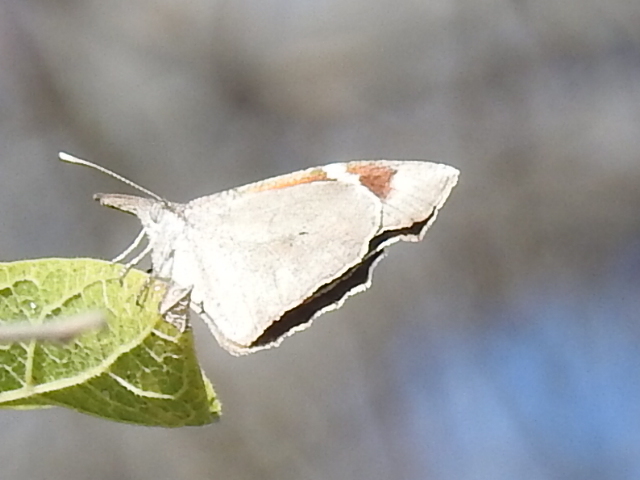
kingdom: Animalia
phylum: Arthropoda
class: Insecta
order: Lepidoptera
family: Nymphalidae
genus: Libytheana
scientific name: Libytheana carinenta
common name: American snout
